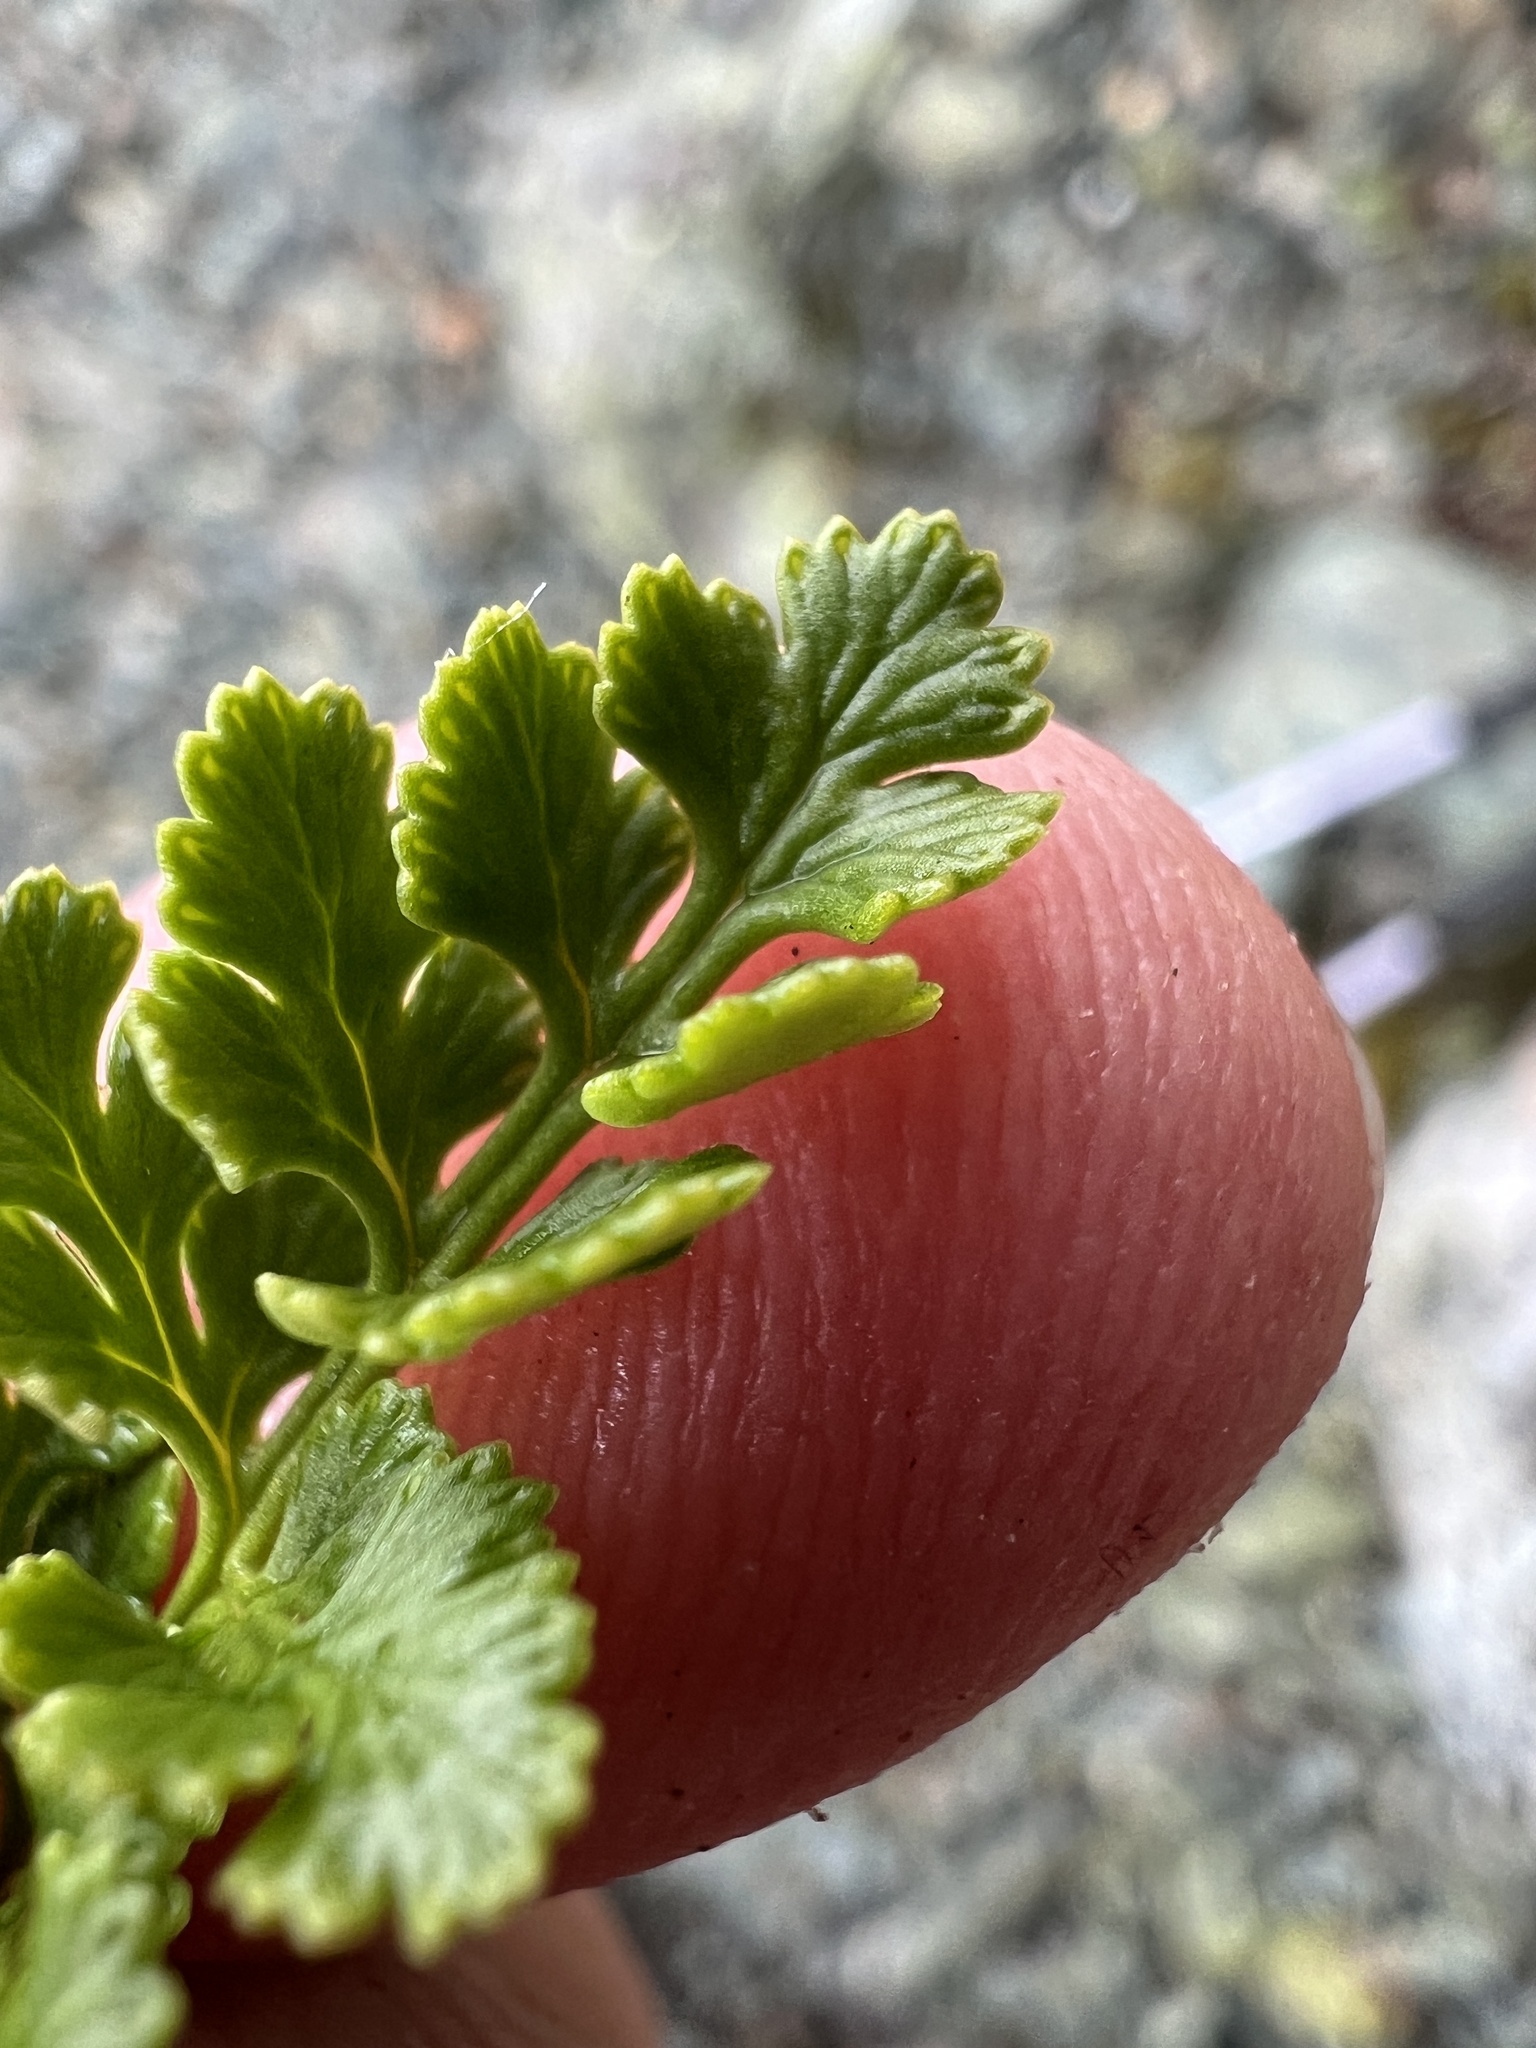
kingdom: Plantae
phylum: Tracheophyta
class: Polypodiopsida
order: Polypodiales
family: Pteridaceae
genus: Cryptogramma
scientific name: Cryptogramma acrostichoides
